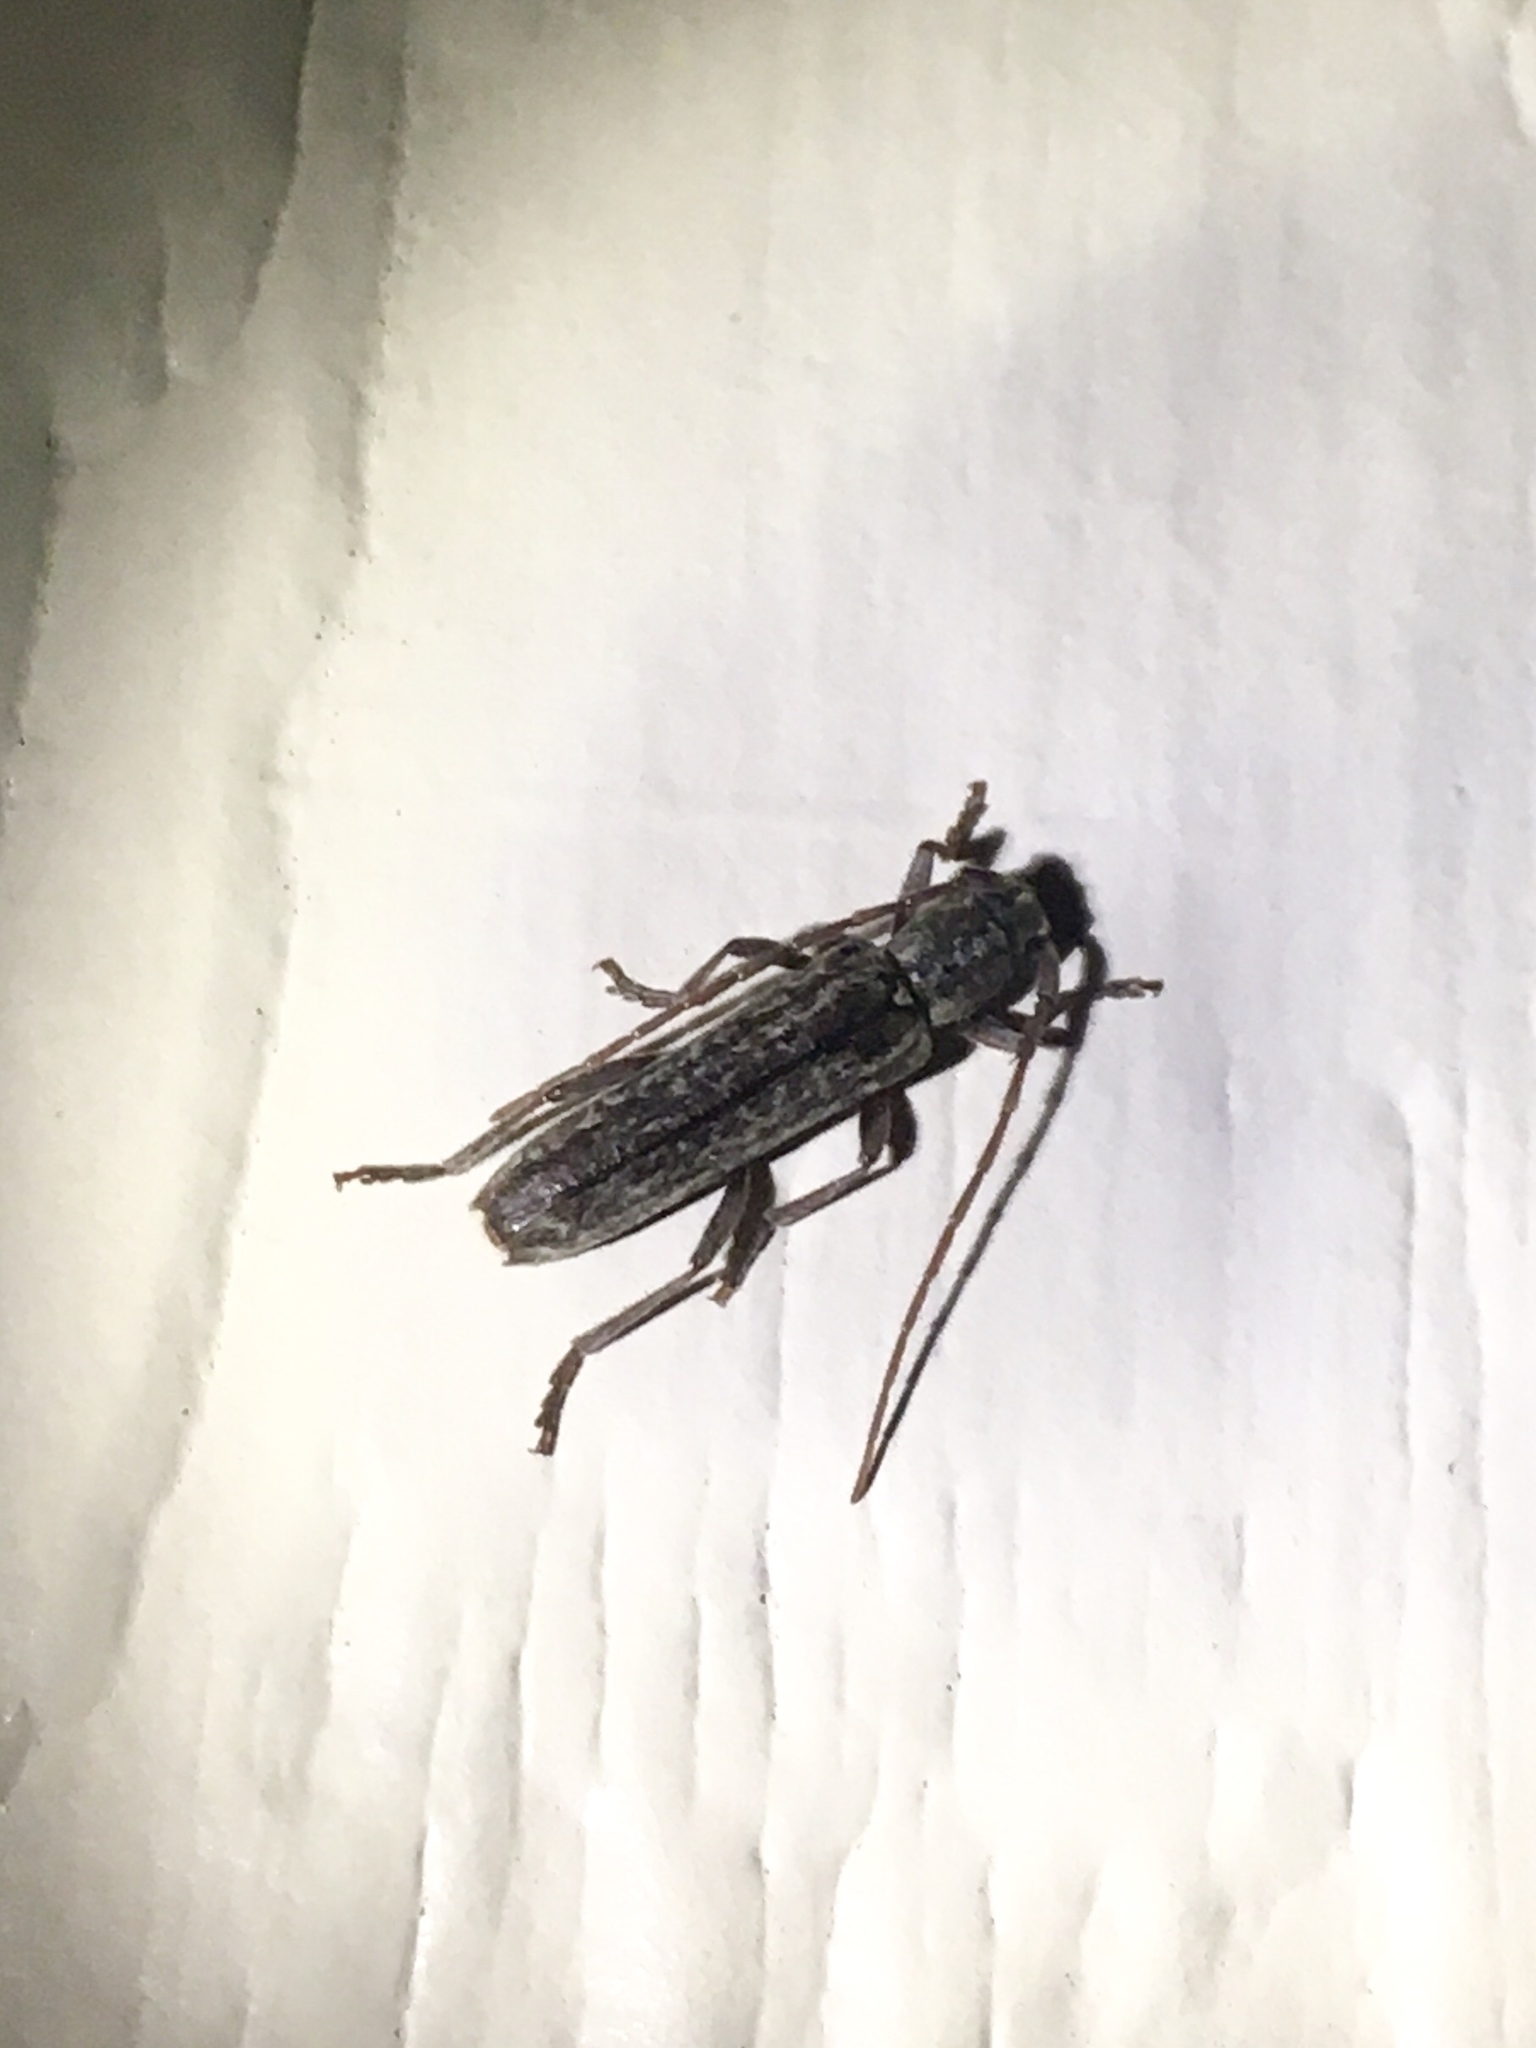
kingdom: Animalia
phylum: Arthropoda
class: Insecta
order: Coleoptera
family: Cerambycidae
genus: Anelaphus
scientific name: Anelaphus villosus
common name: Twig pruner
